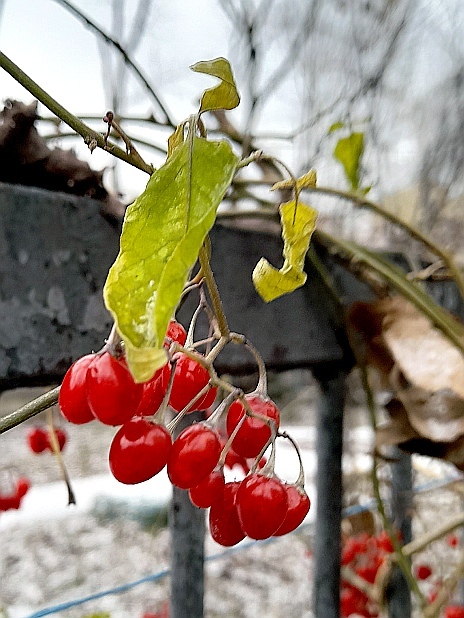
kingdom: Plantae
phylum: Tracheophyta
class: Magnoliopsida
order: Solanales
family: Solanaceae
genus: Solanum
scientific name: Solanum dulcamara
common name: Climbing nightshade
